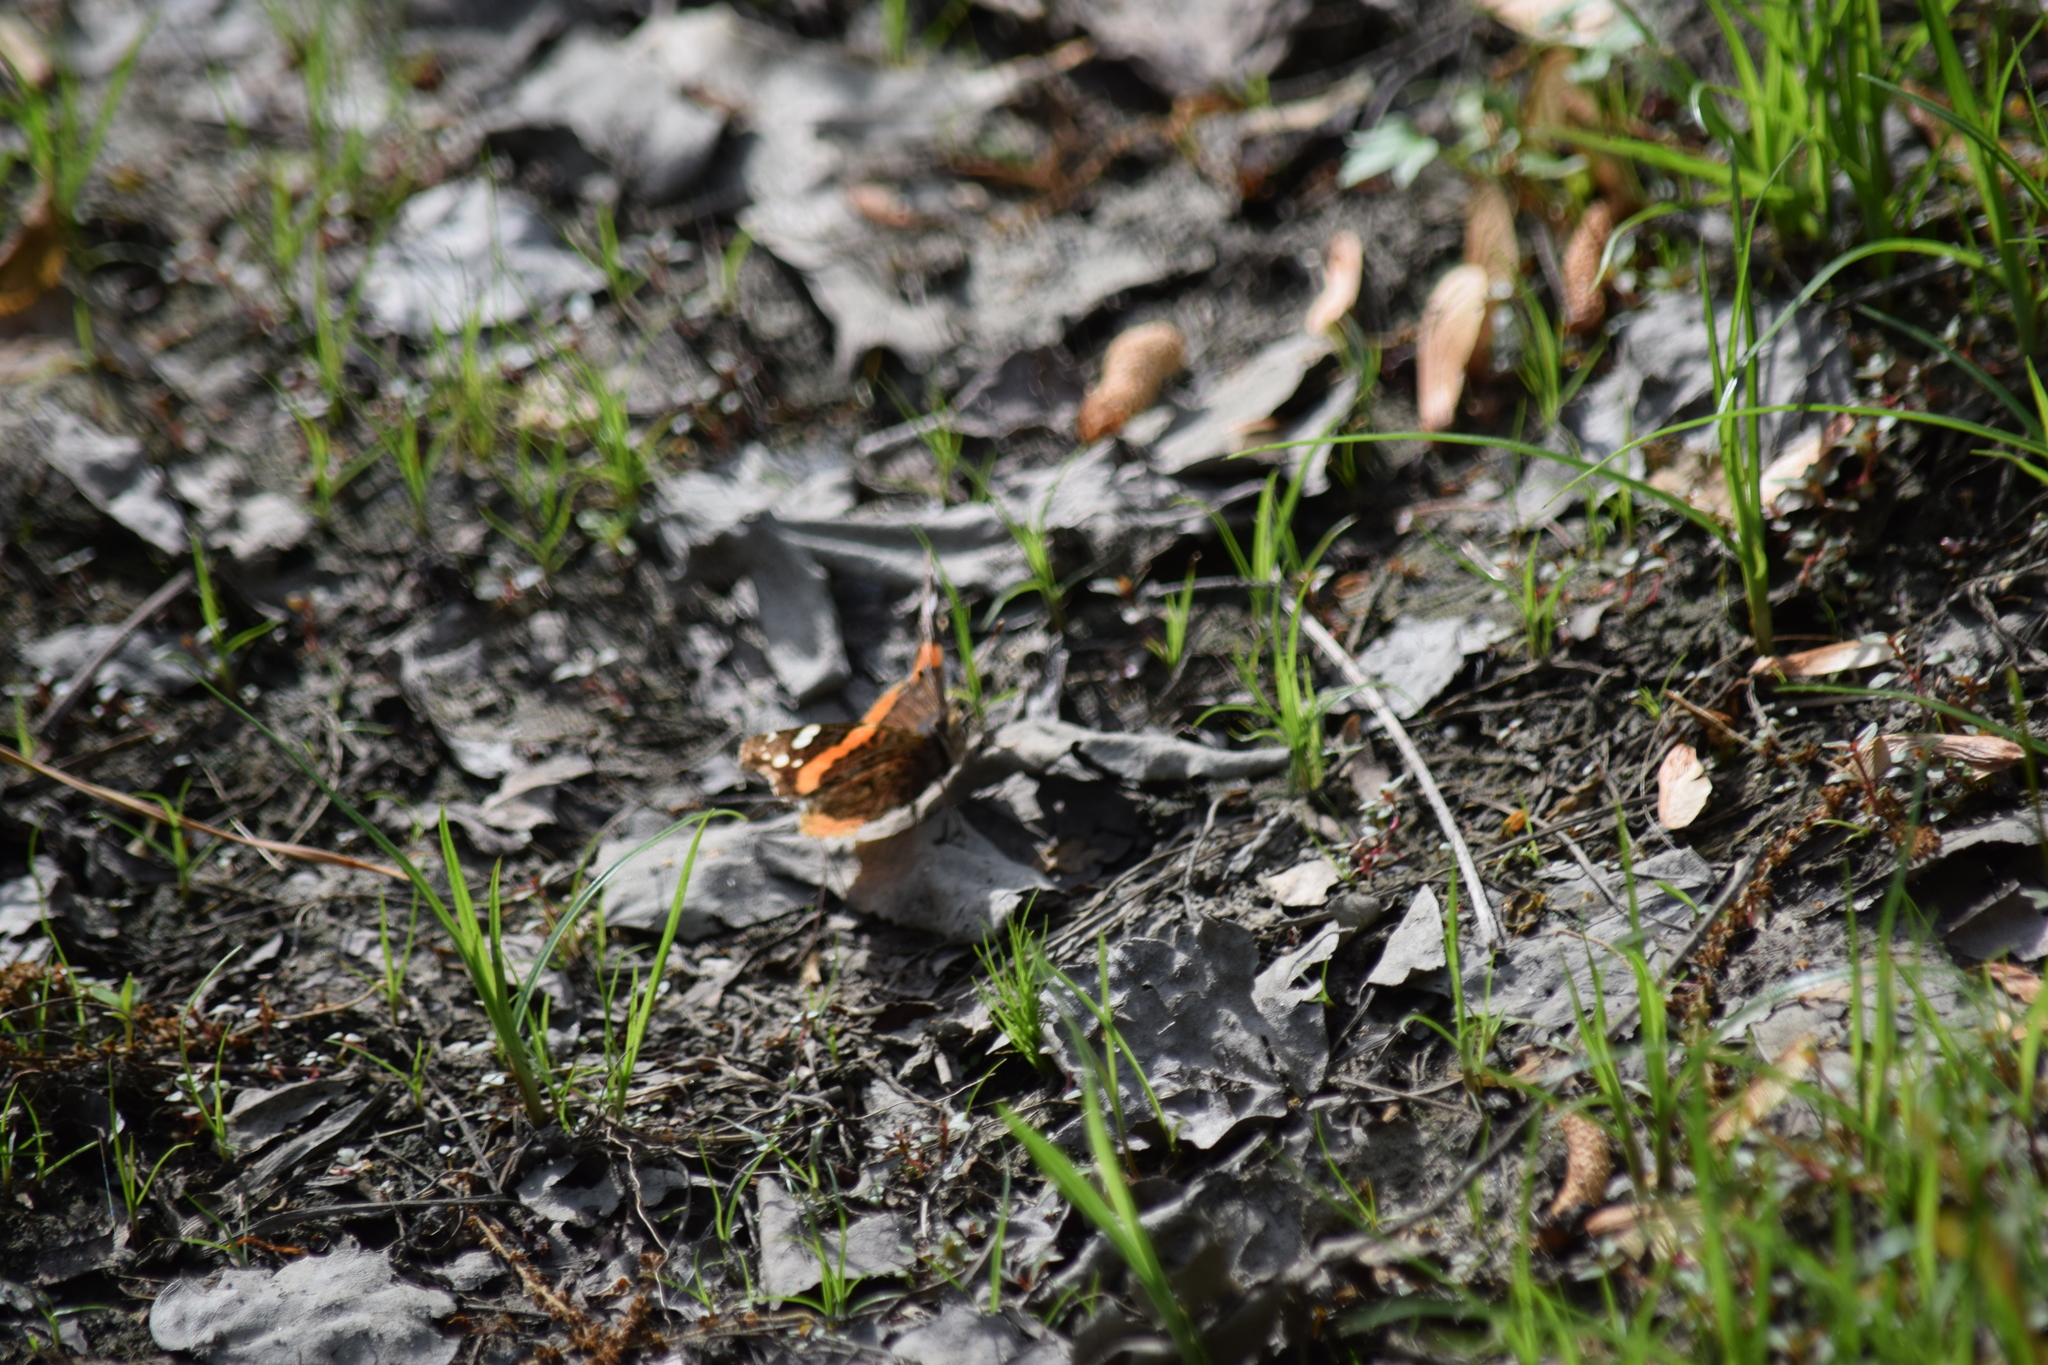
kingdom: Animalia
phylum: Arthropoda
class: Insecta
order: Lepidoptera
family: Nymphalidae
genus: Vanessa
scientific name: Vanessa atalanta
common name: Red admiral
